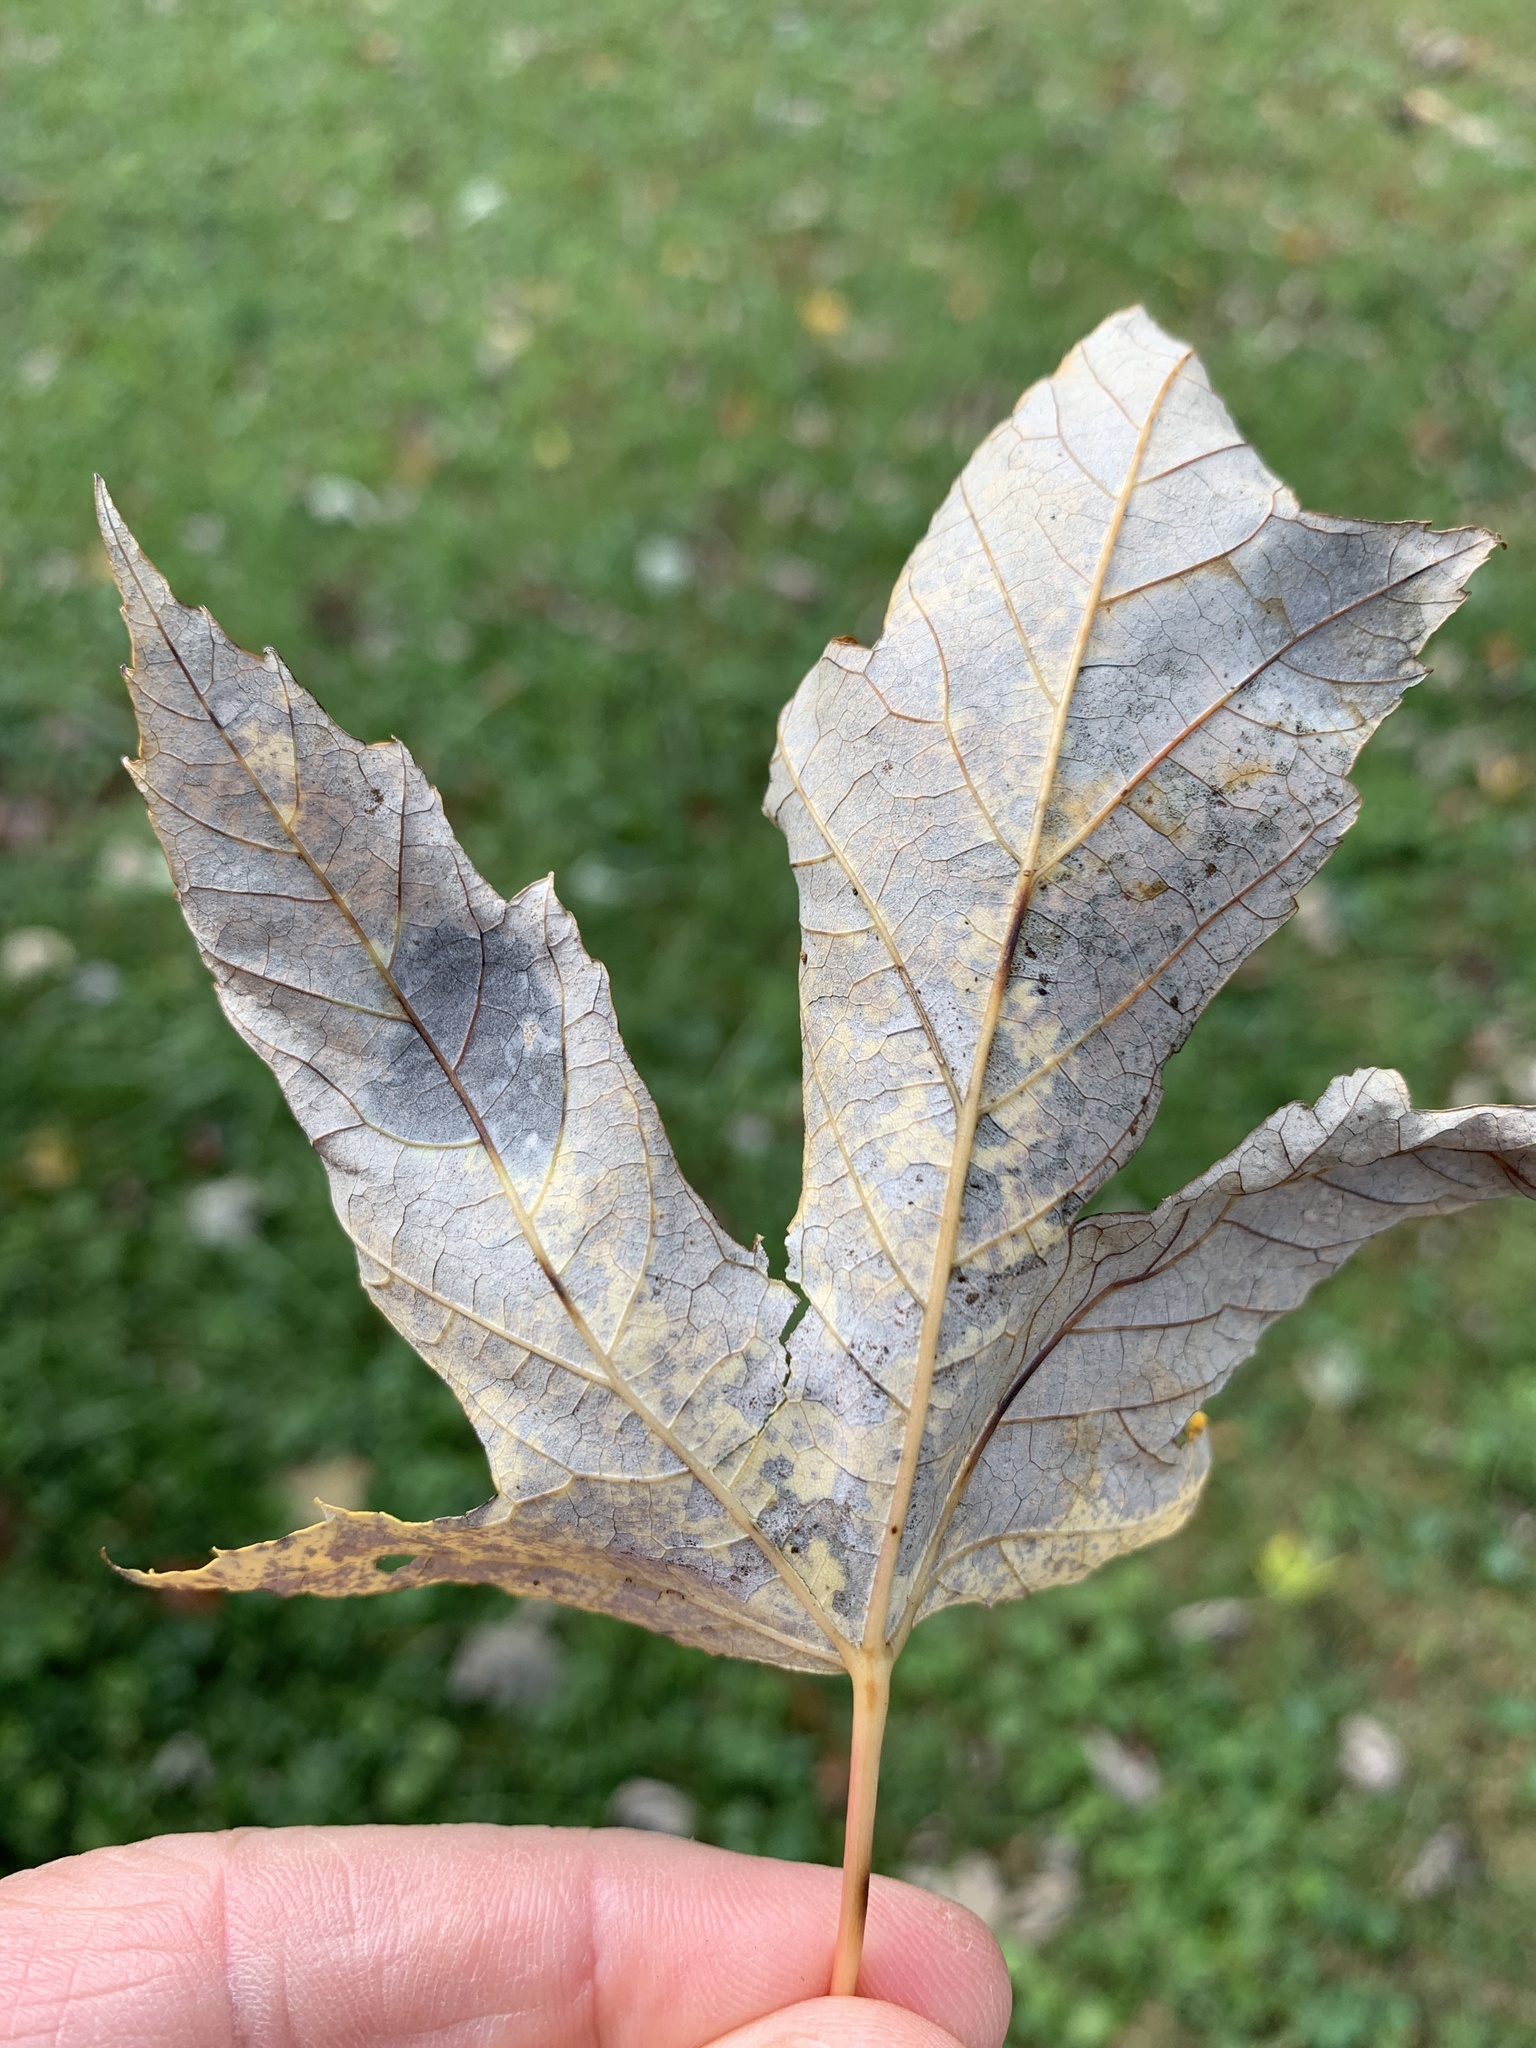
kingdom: Fungi
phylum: Ascomycota
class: Leotiomycetes
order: Rhytismatales
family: Rhytismataceae
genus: Rhytisma
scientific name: Rhytisma americanum
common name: American tar spot
